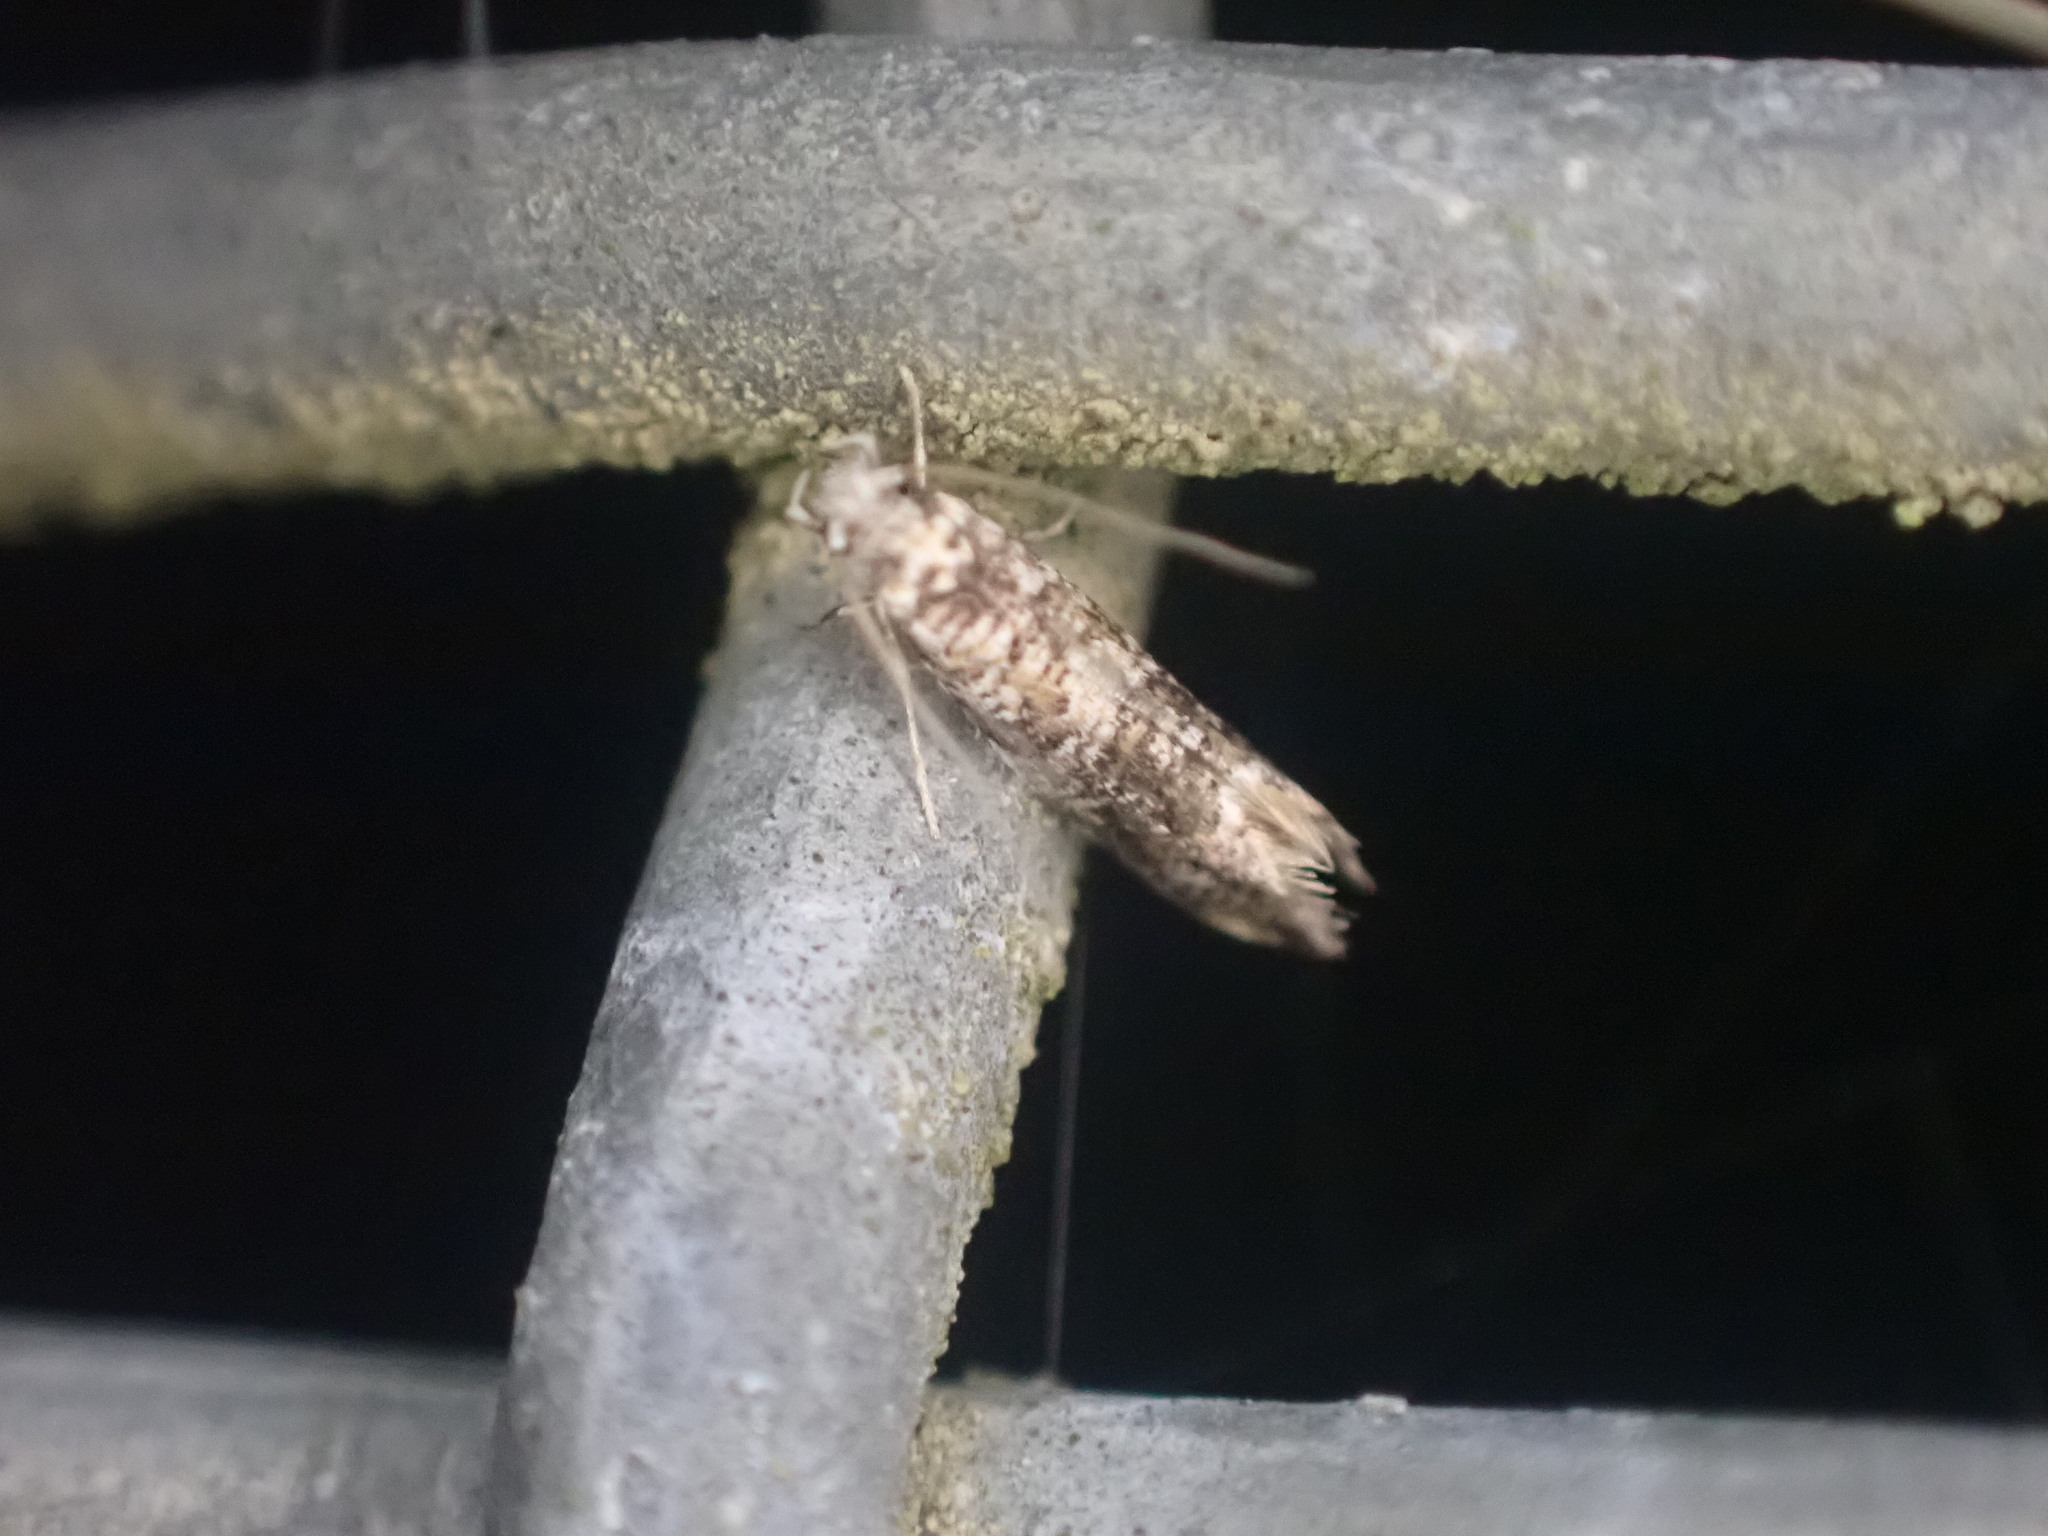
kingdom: Animalia
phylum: Arthropoda
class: Insecta
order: Lepidoptera
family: Tineidae
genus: Eschatotypa
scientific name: Eschatotypa derogatella
